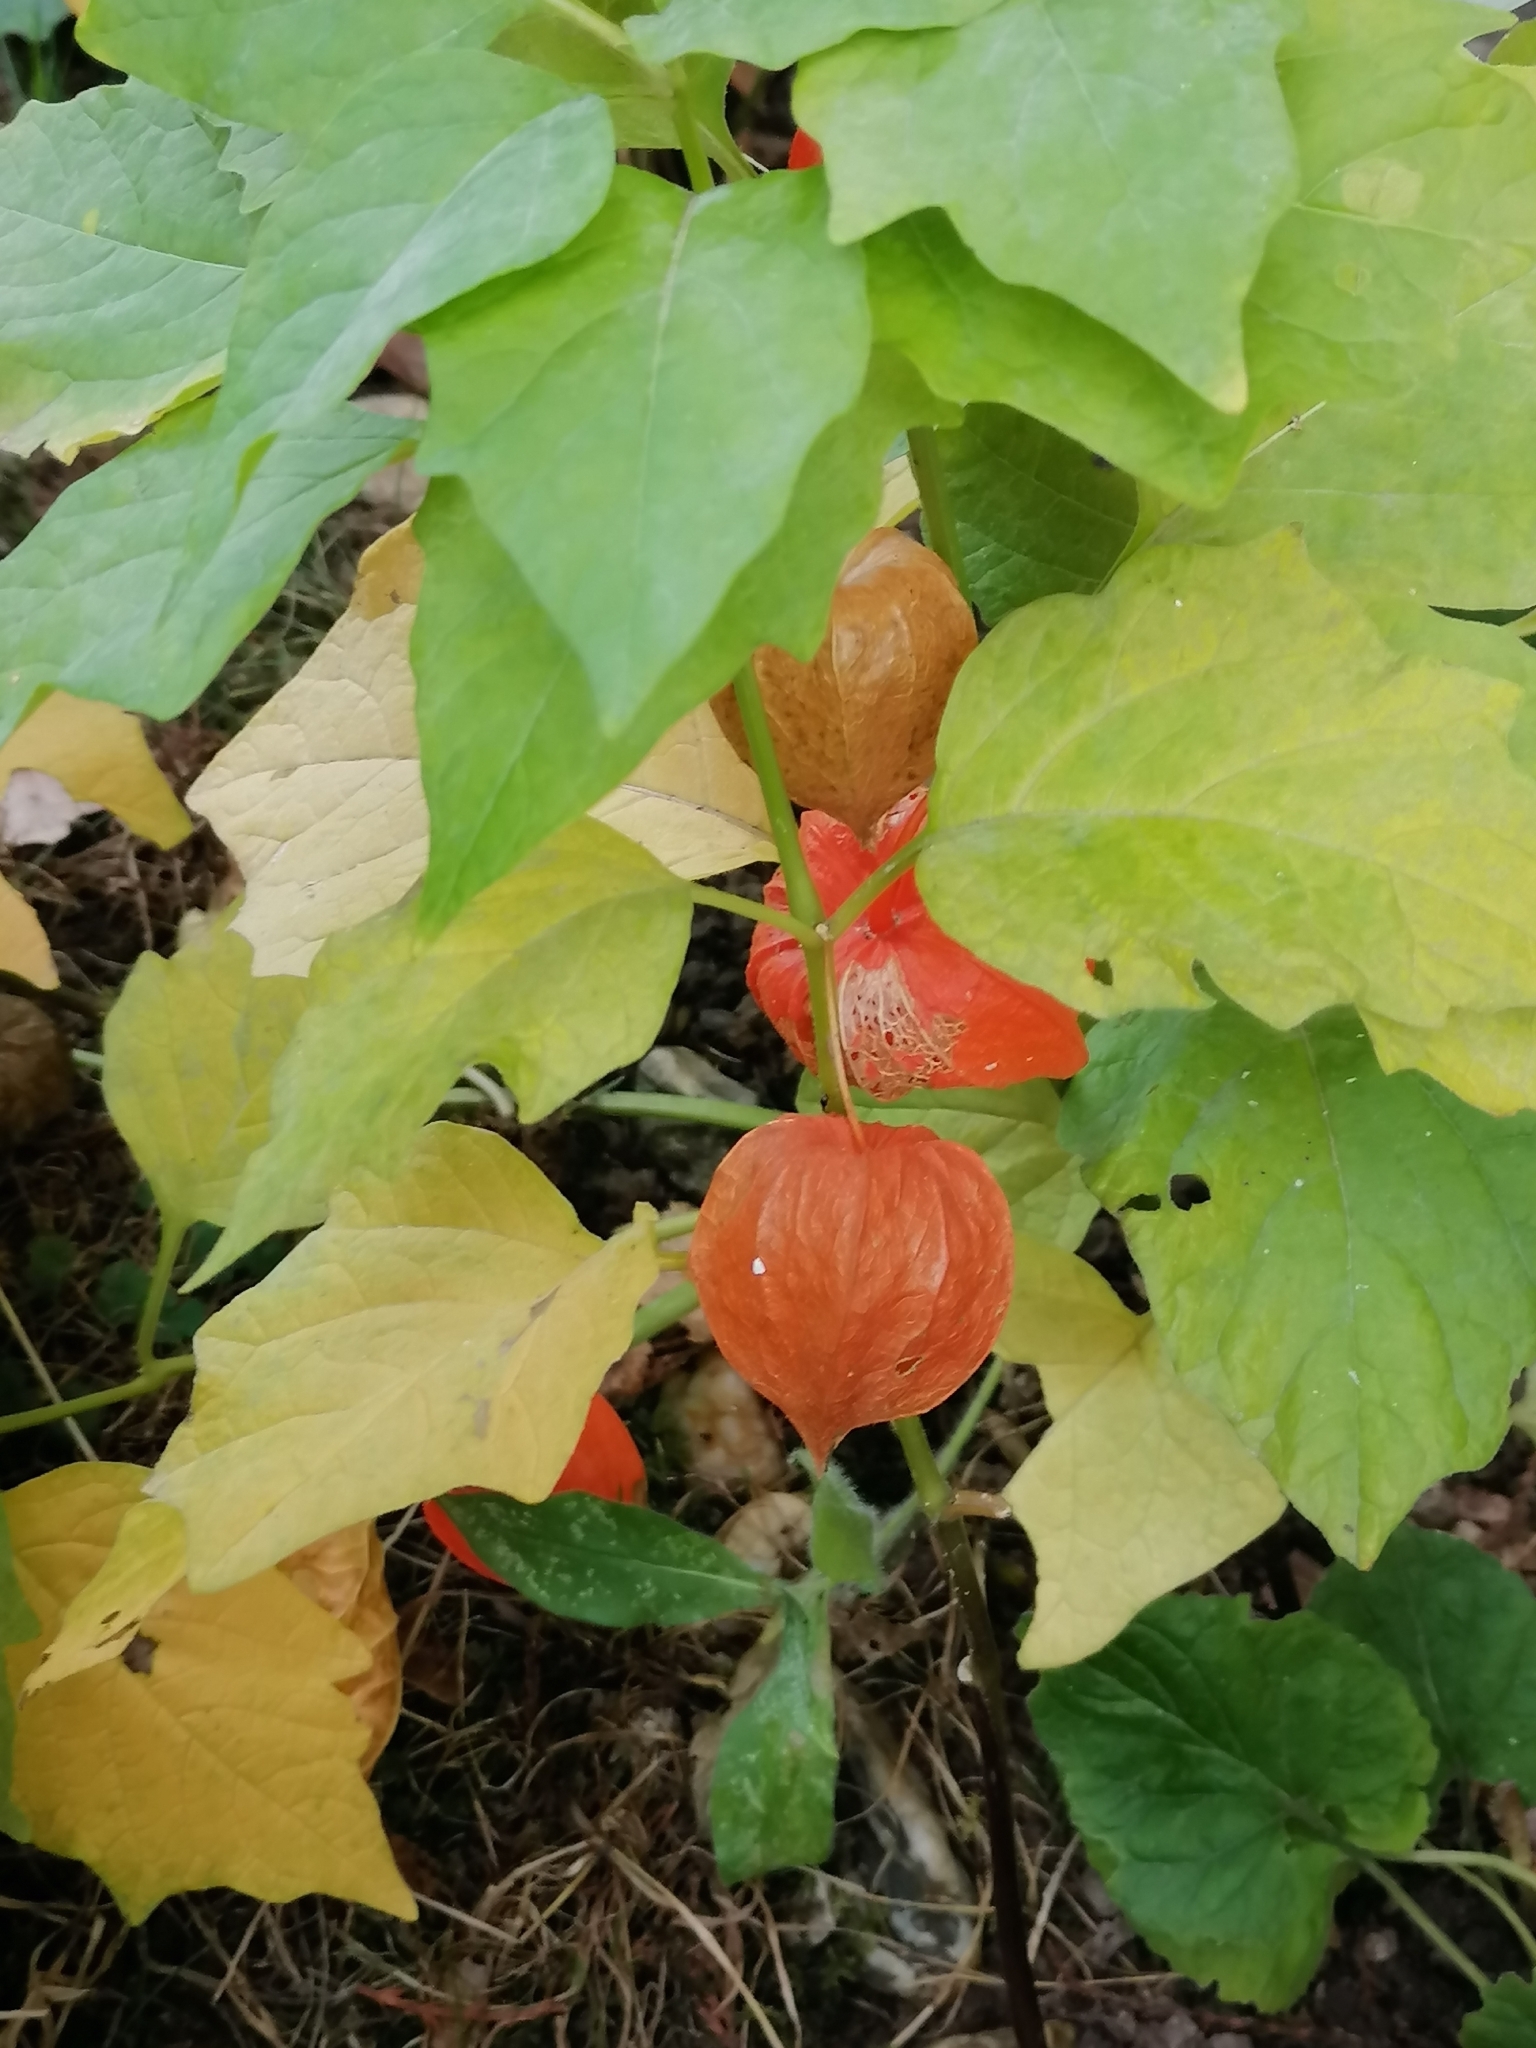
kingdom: Plantae
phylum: Tracheophyta
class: Magnoliopsida
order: Solanales
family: Solanaceae
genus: Alkekengi
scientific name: Alkekengi officinarum
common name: Japanese-lantern
